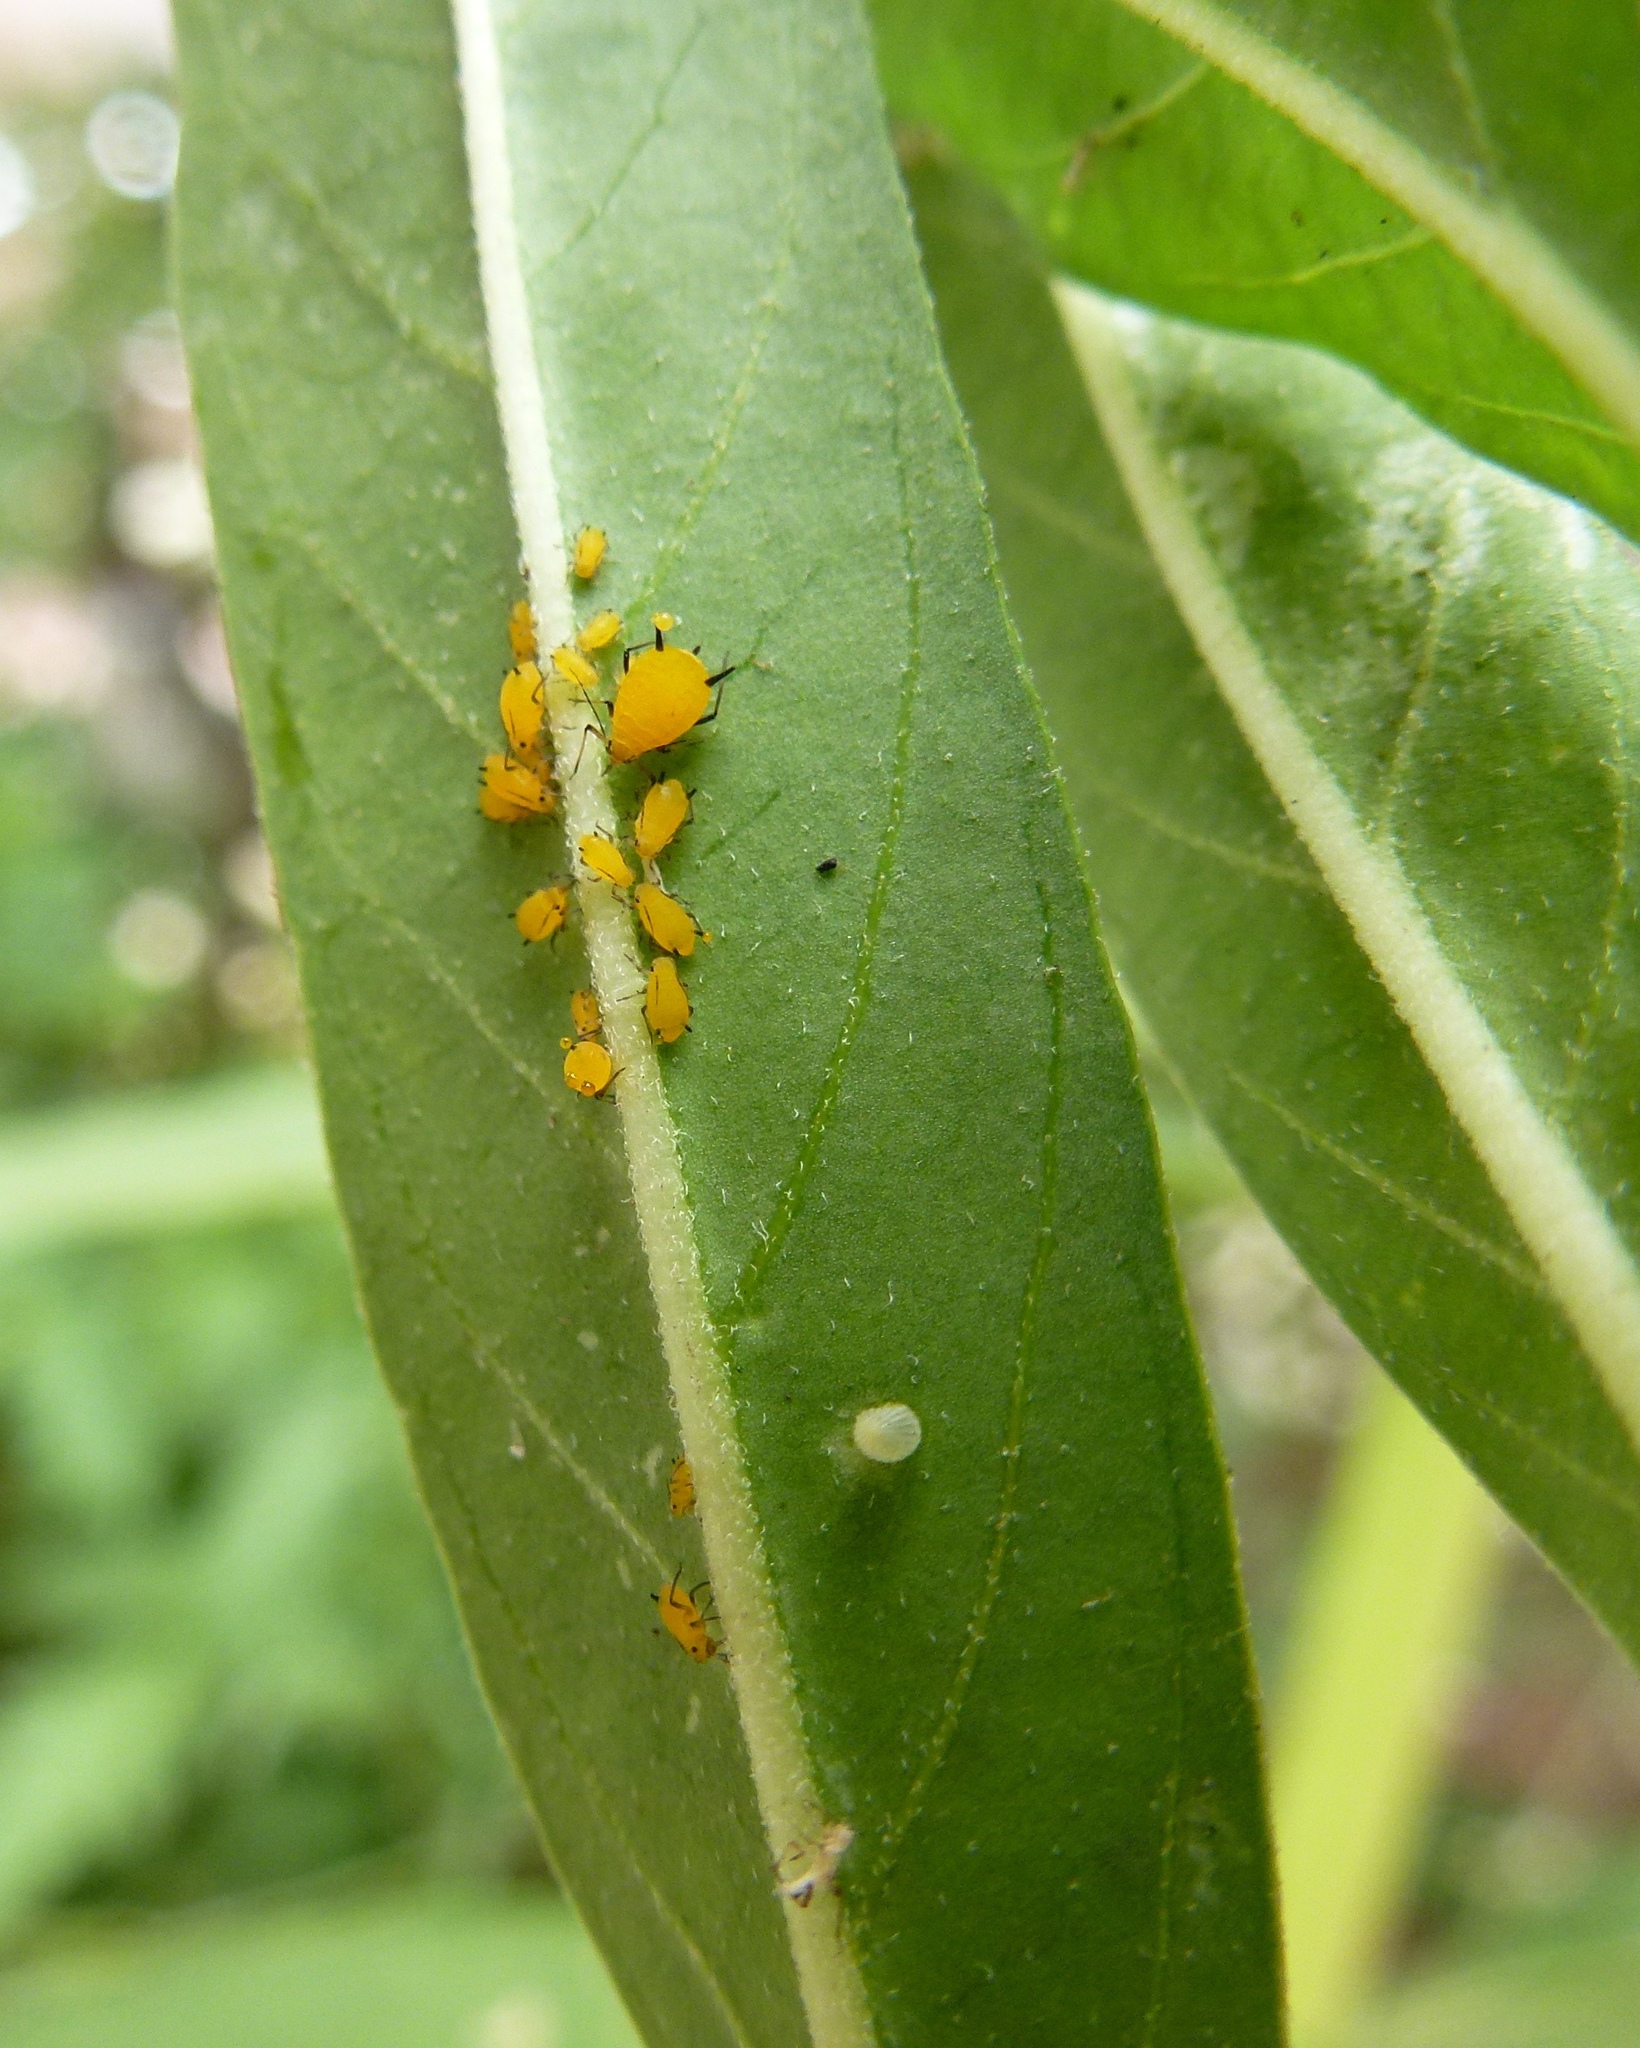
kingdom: Animalia
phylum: Arthropoda
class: Insecta
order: Lepidoptera
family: Nymphalidae
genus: Danaus
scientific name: Danaus plexippus
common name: Monarch
